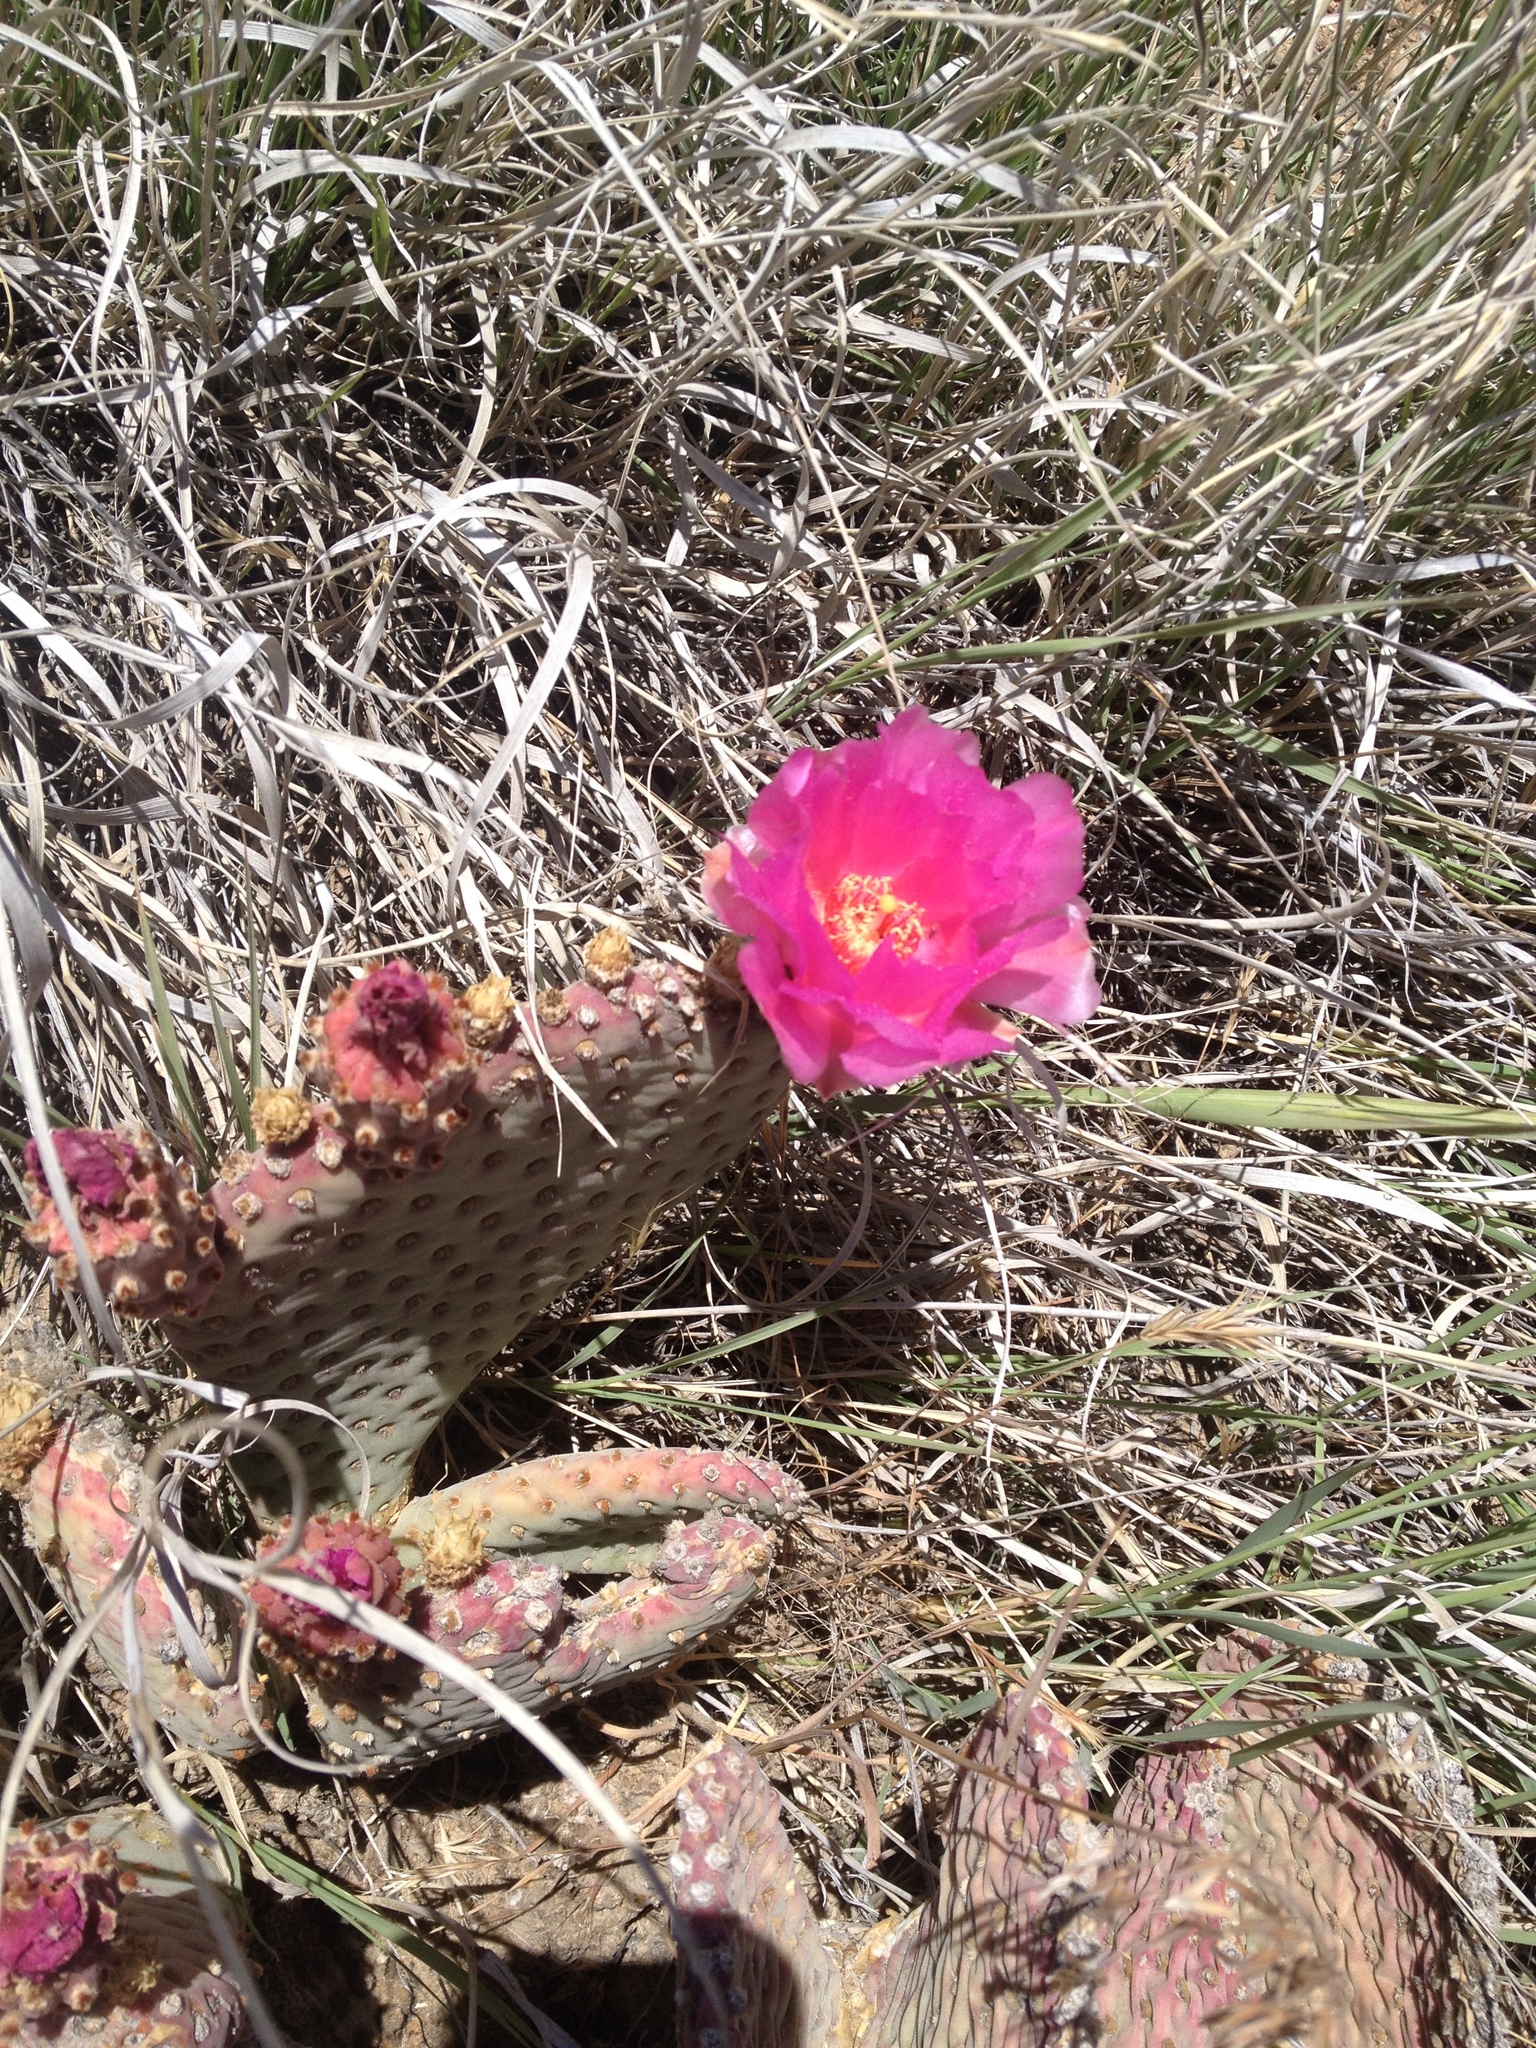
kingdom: Plantae
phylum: Tracheophyta
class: Magnoliopsida
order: Caryophyllales
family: Cactaceae
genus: Opuntia
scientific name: Opuntia basilaris
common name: Beavertail prickly-pear
